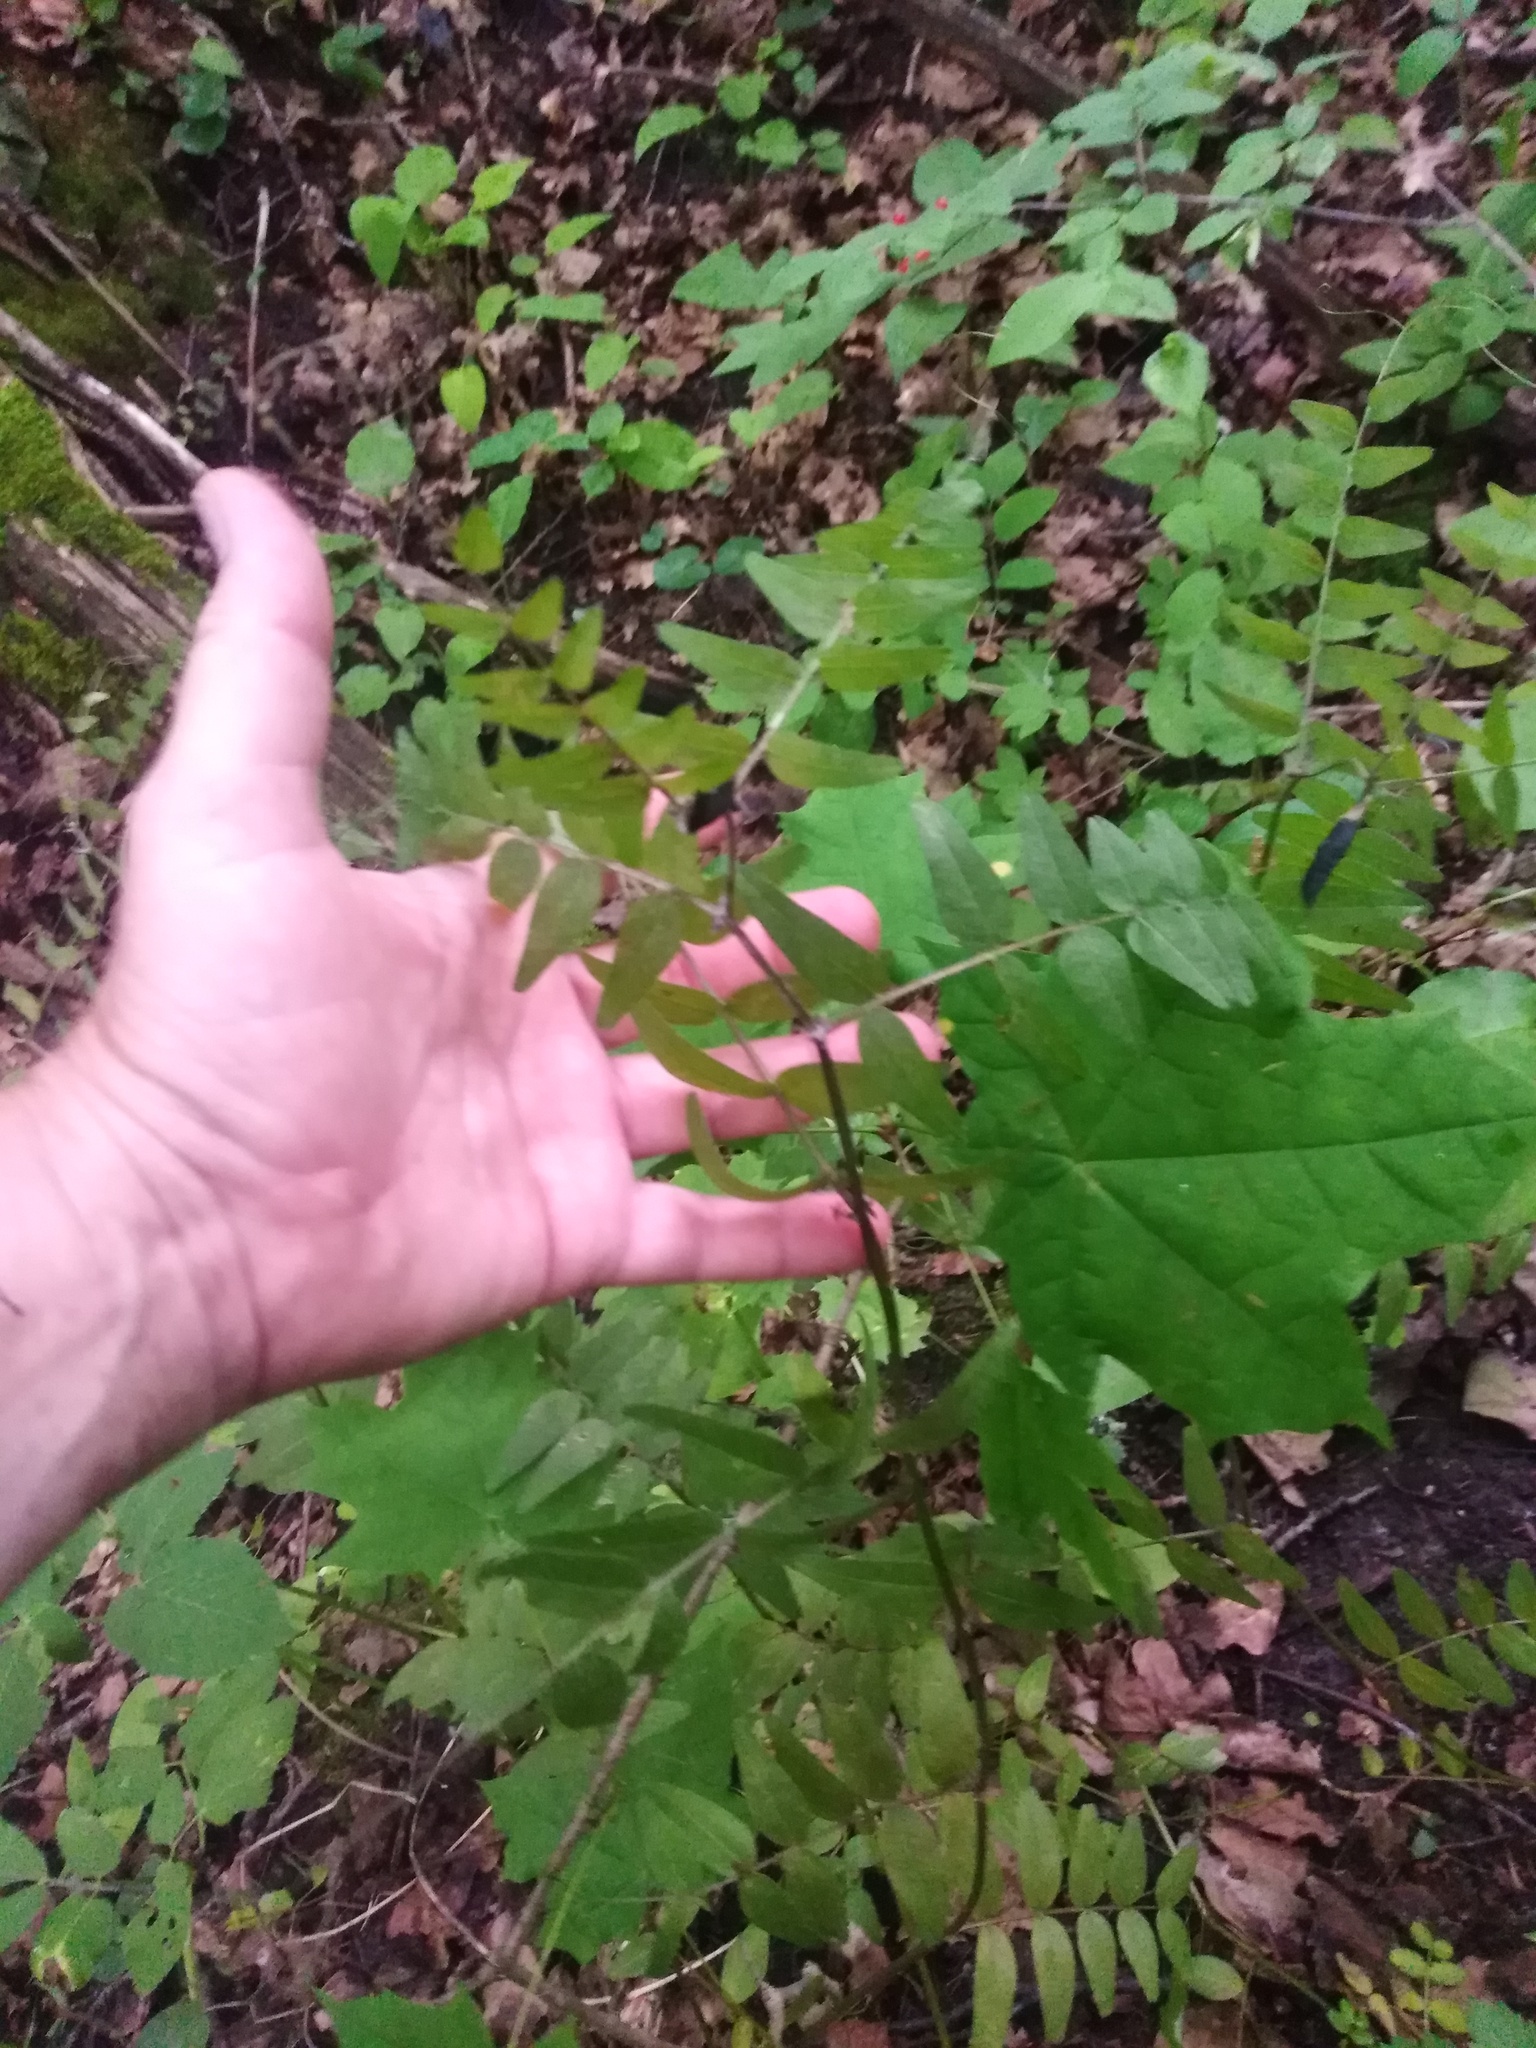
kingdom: Plantae
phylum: Tracheophyta
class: Magnoliopsida
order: Fabales
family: Fabaceae
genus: Vicia
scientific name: Vicia sepium
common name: Bush vetch
